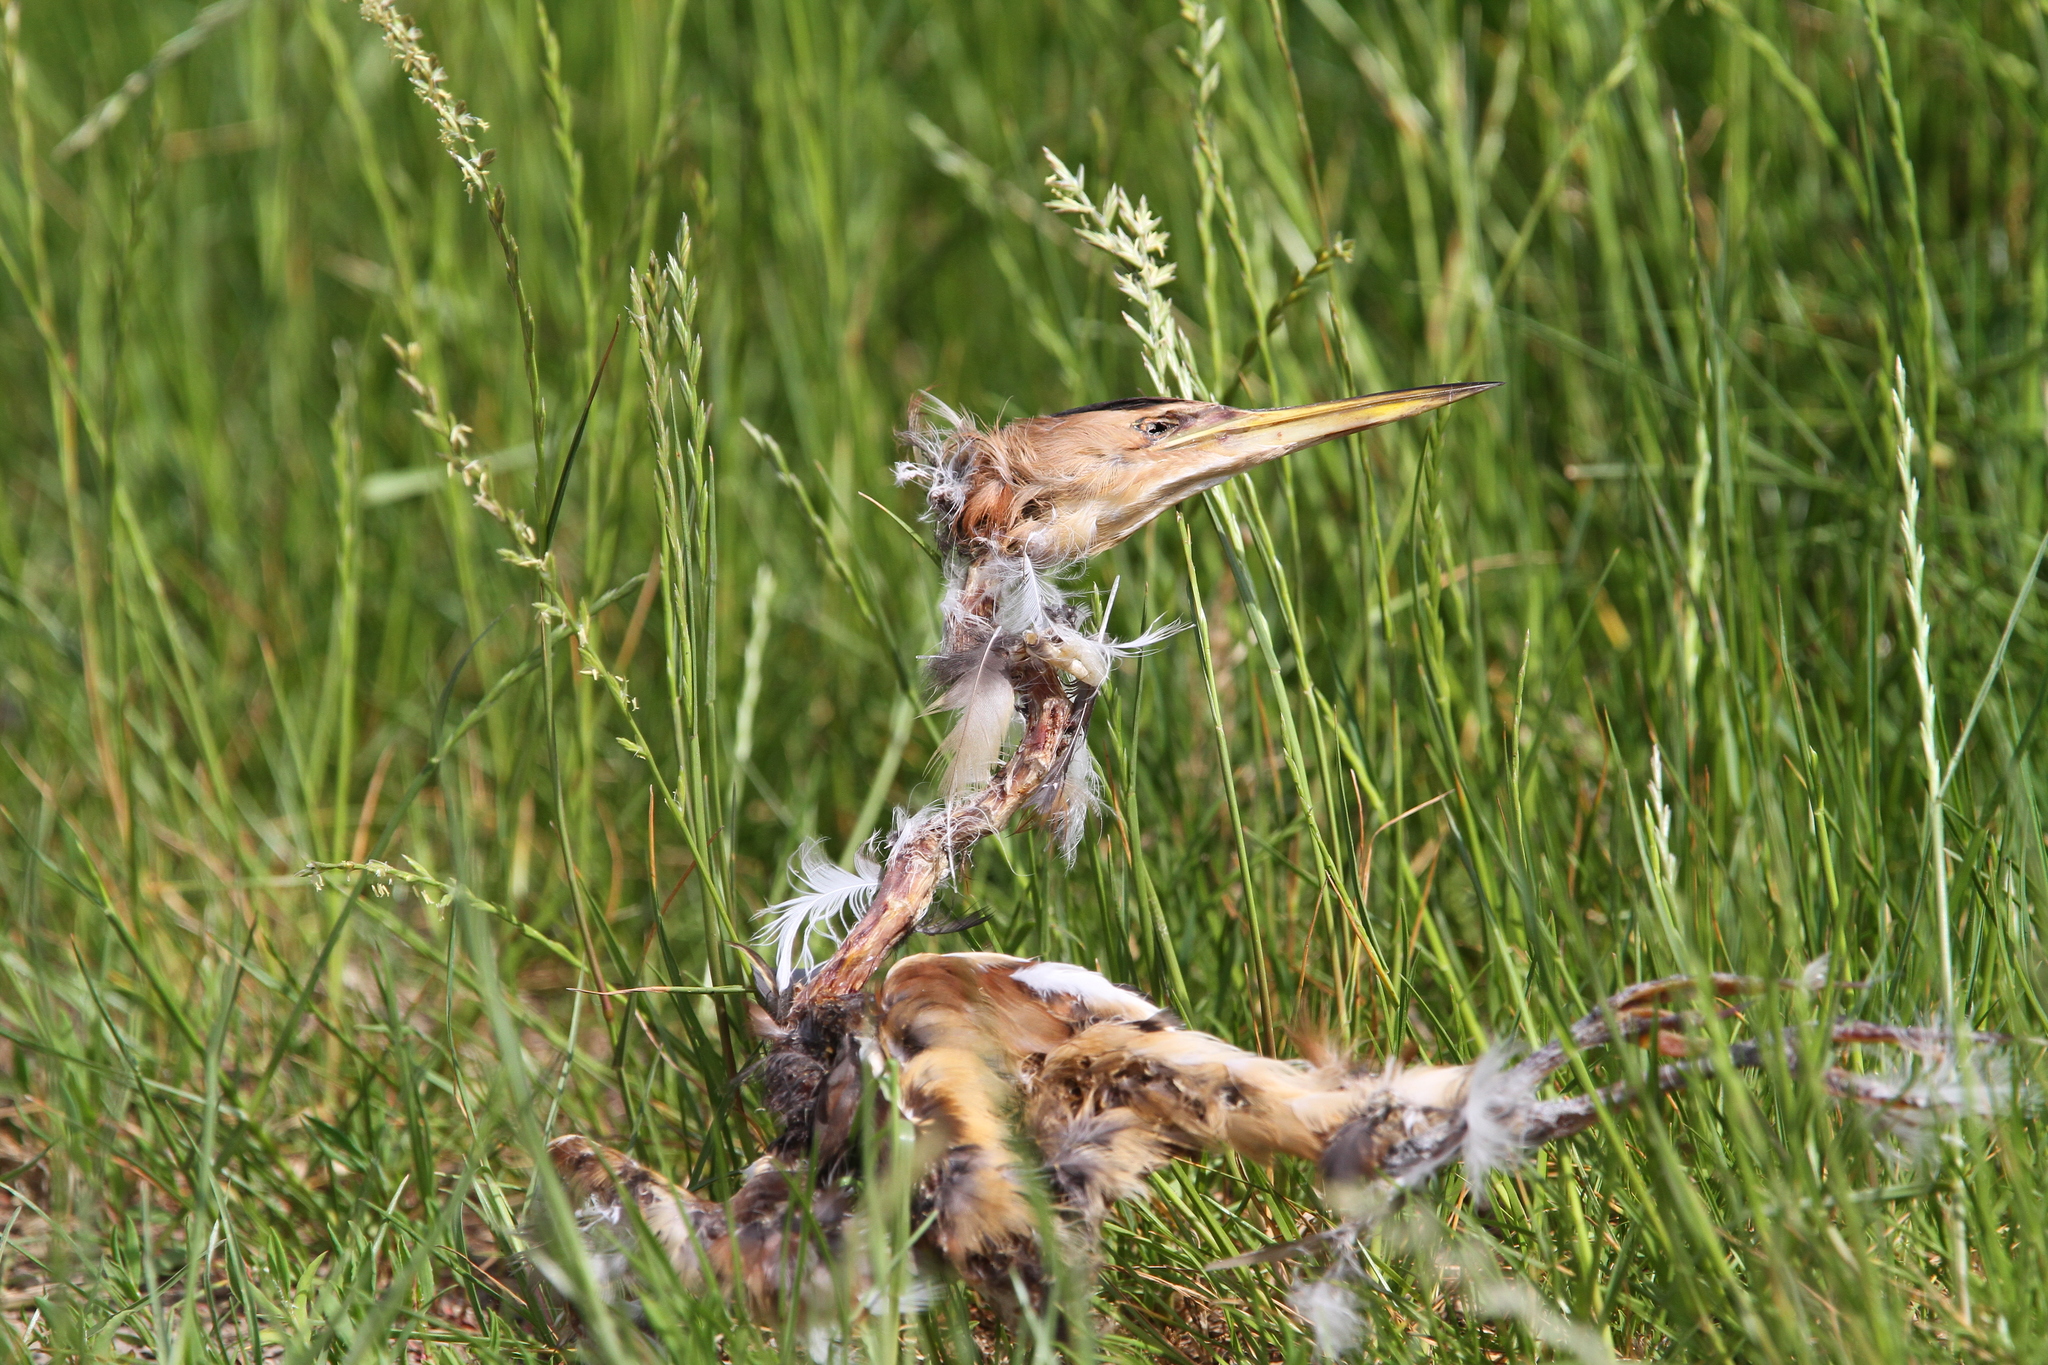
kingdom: Animalia
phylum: Chordata
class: Aves
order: Pelecaniformes
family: Ardeidae
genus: Ixobrychus
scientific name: Ixobrychus minutus
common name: Little bittern
